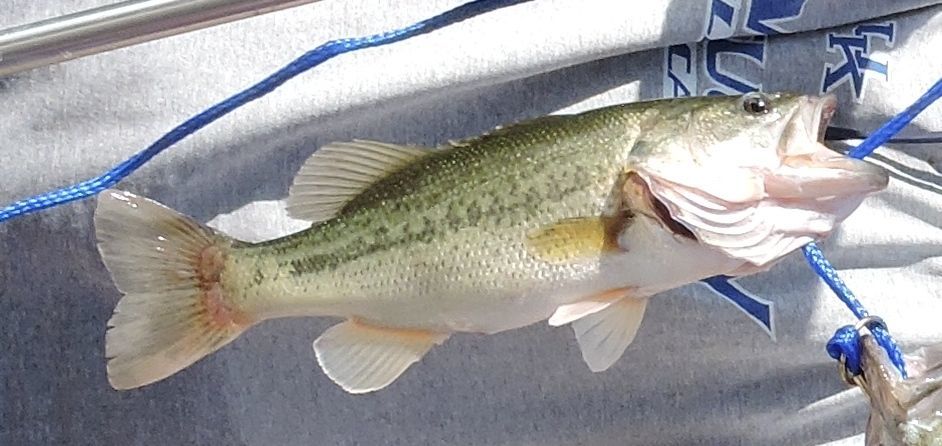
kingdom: Animalia
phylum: Chordata
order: Perciformes
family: Centrarchidae
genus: Micropterus
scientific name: Micropterus
